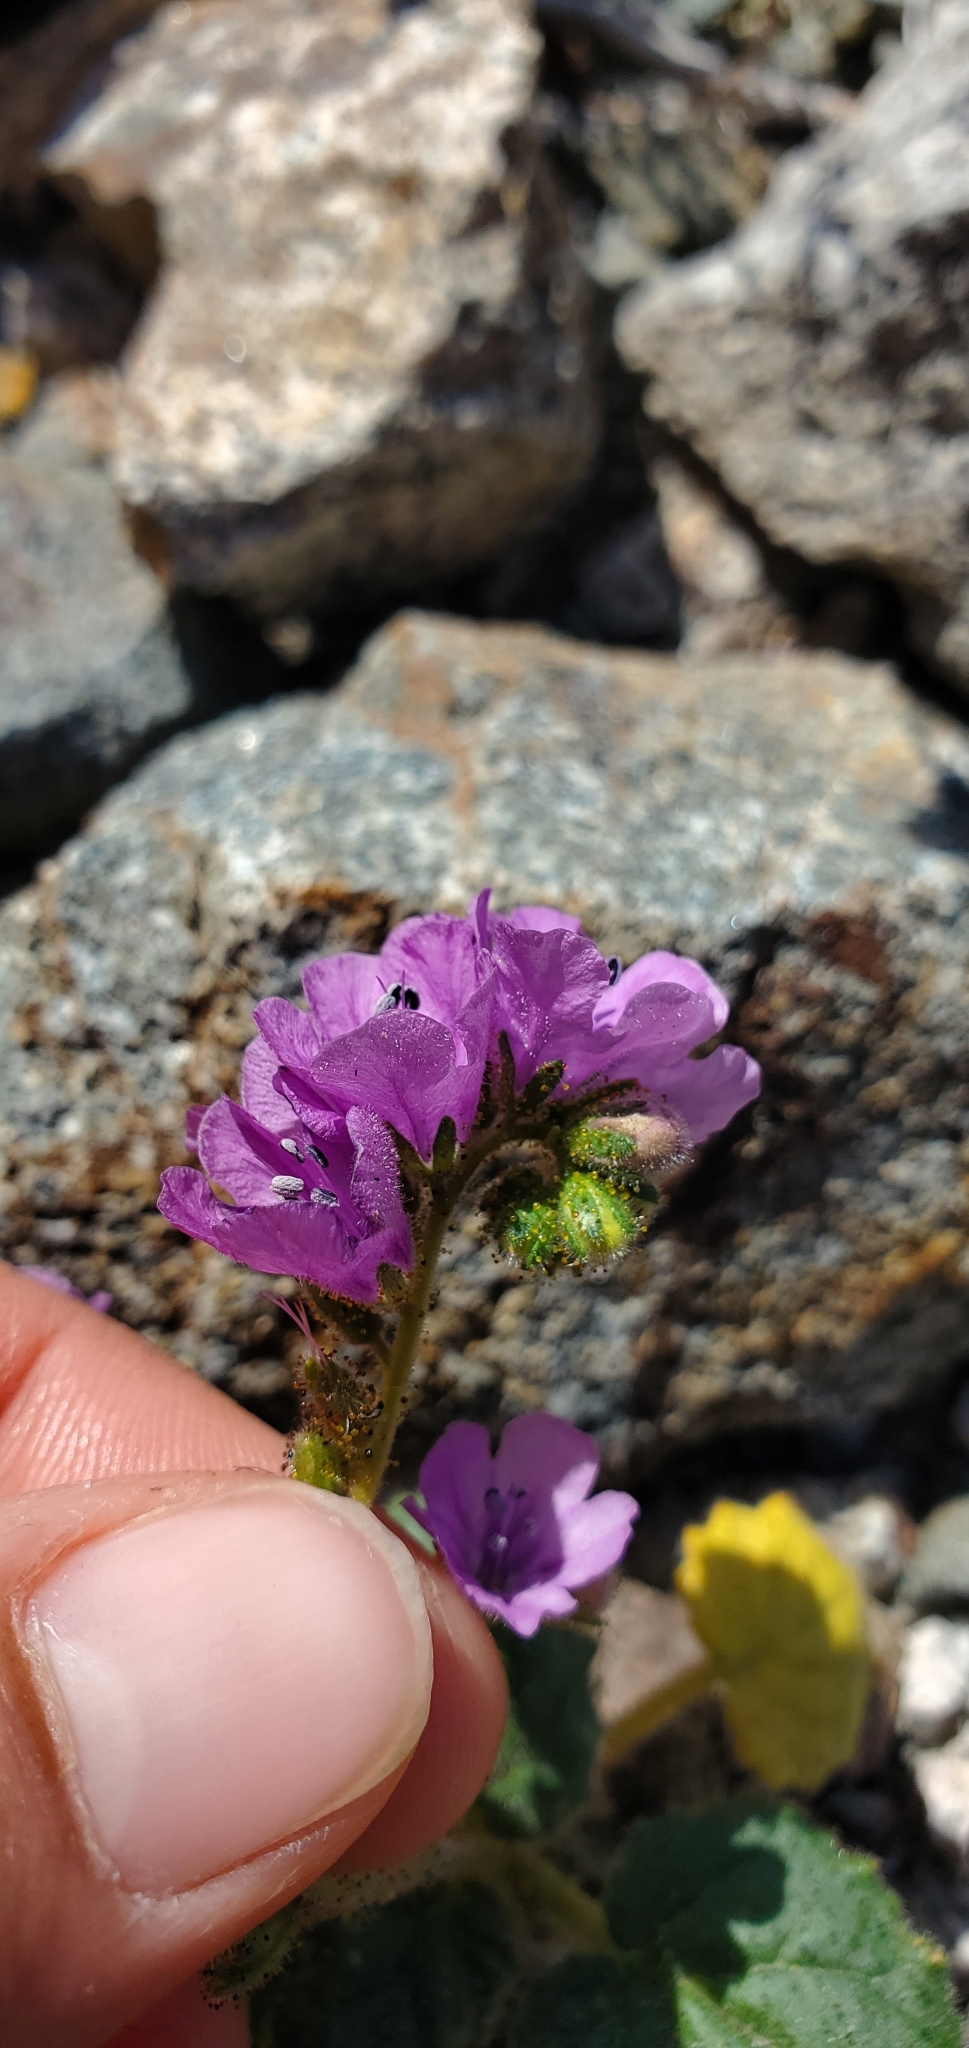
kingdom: Plantae
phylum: Tracheophyta
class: Magnoliopsida
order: Boraginales
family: Hydrophyllaceae
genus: Phacelia
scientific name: Phacelia calthifolia
